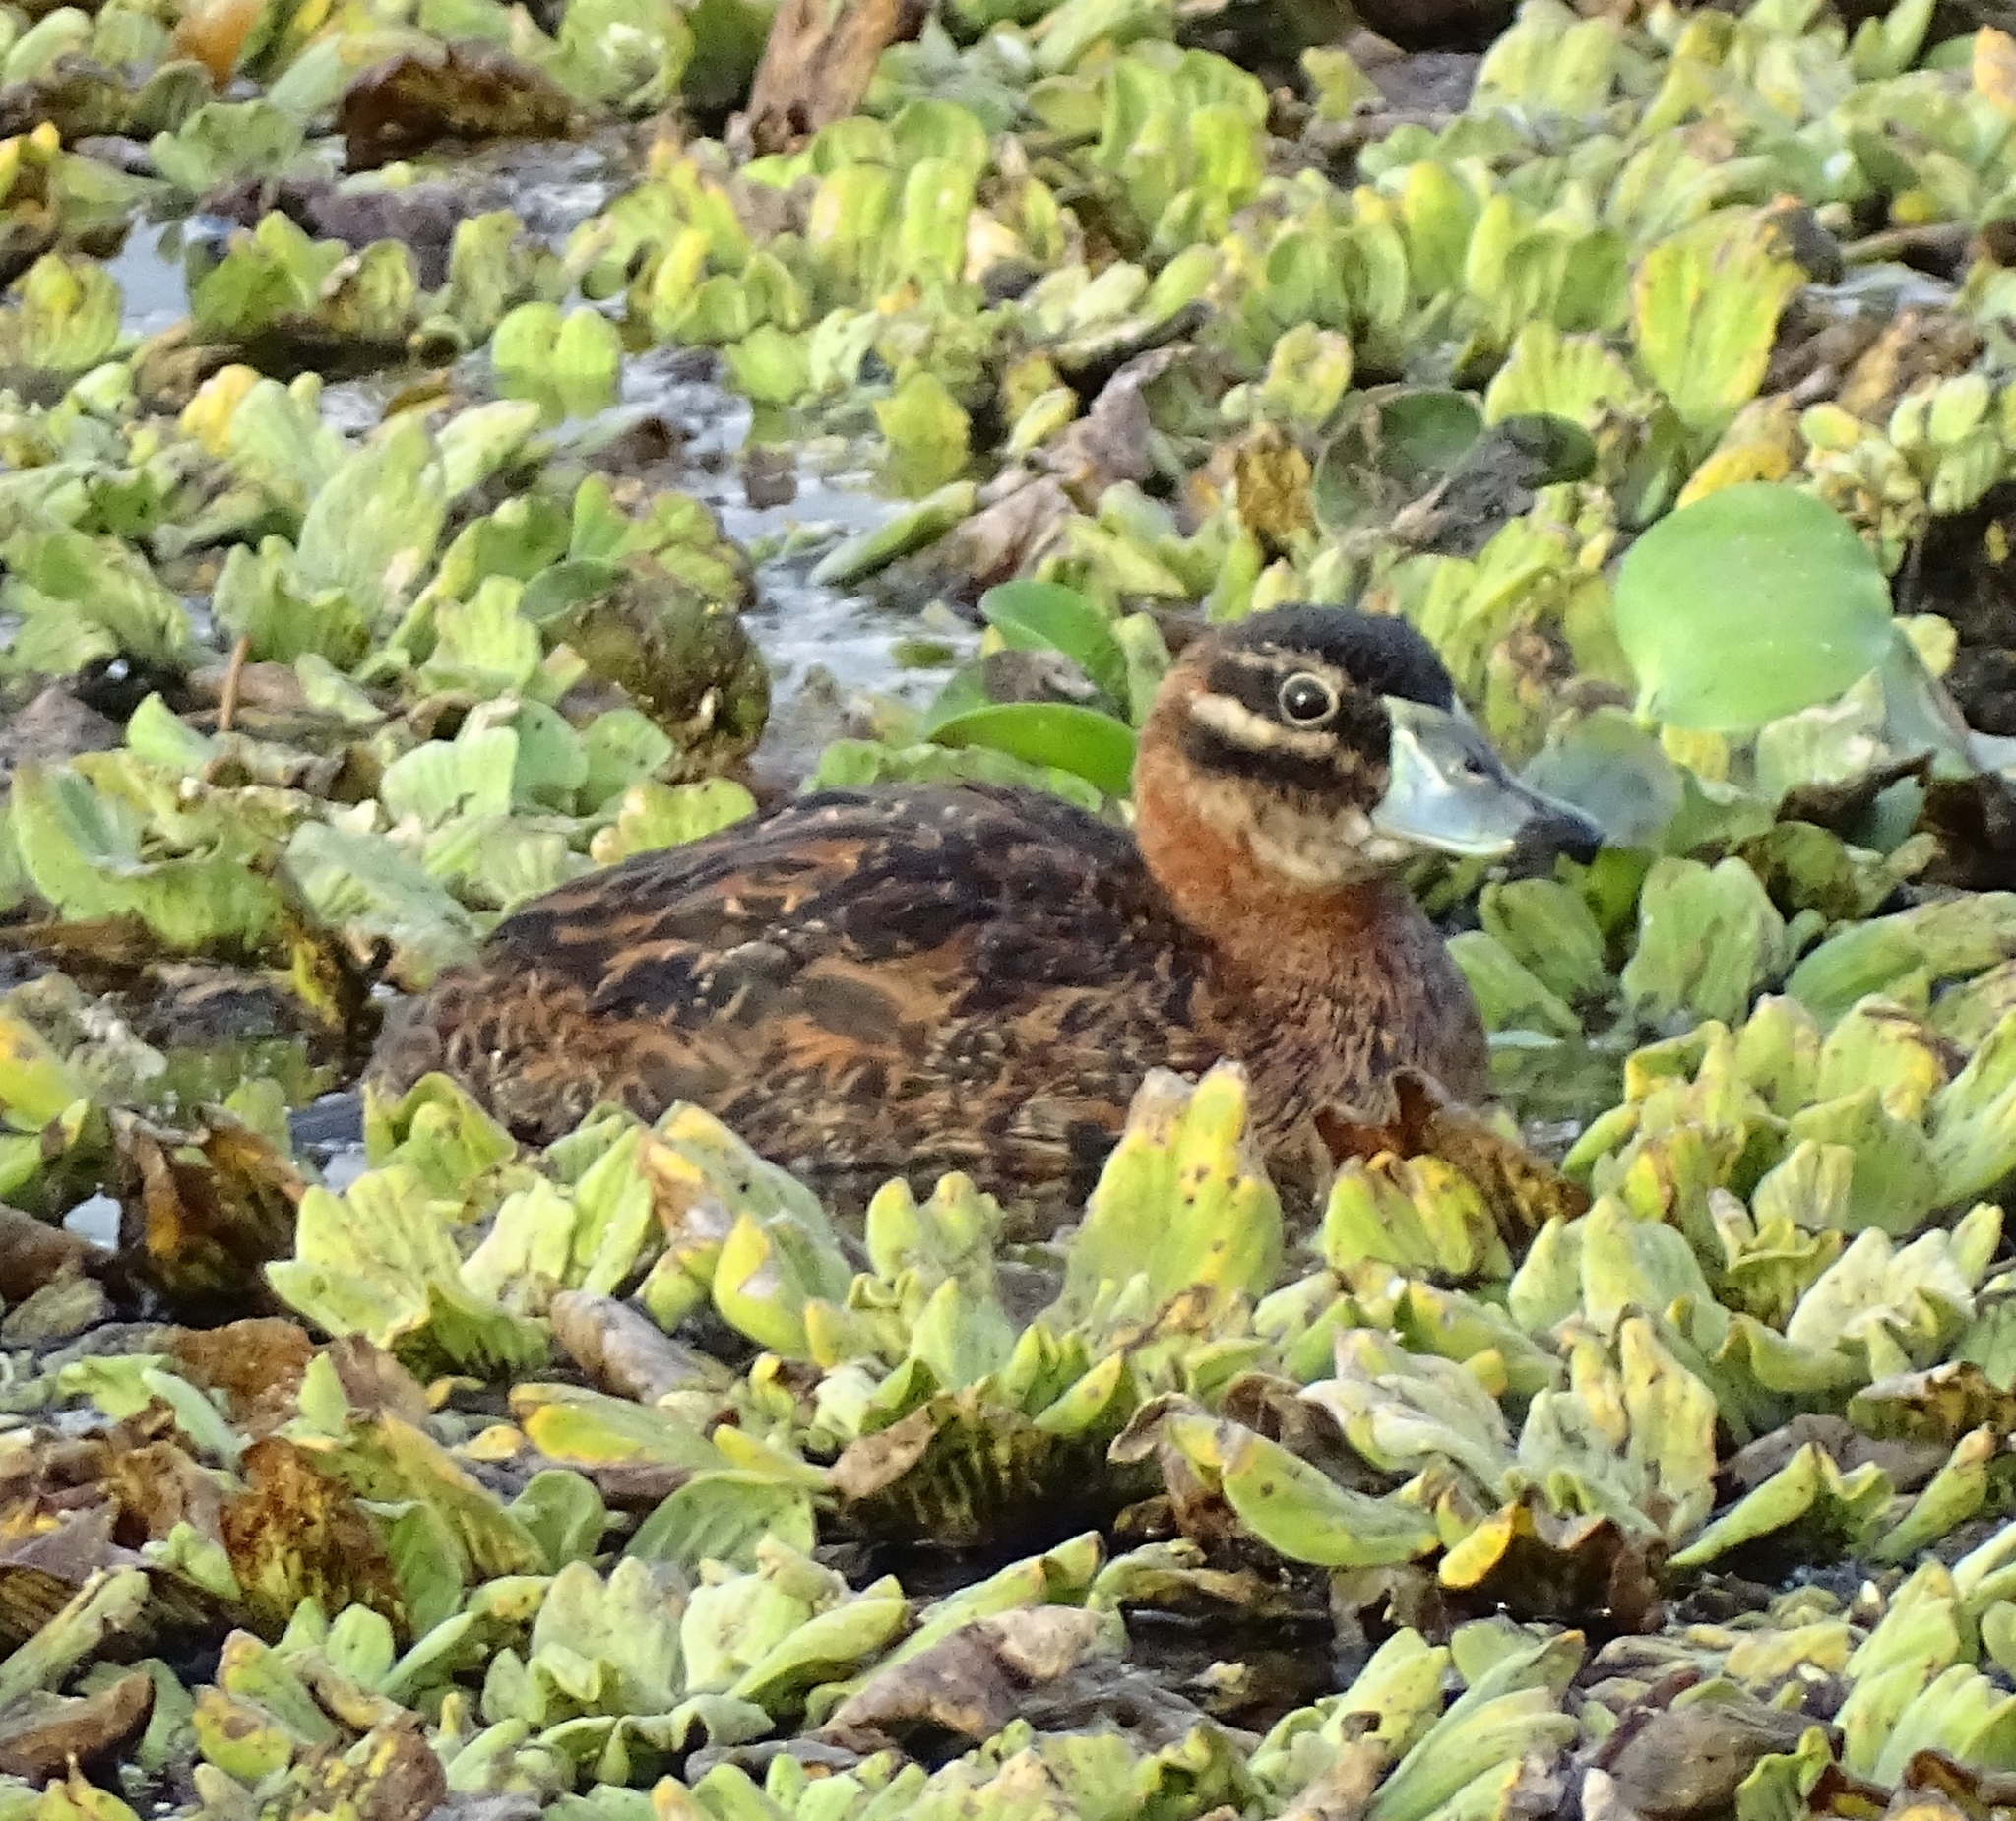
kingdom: Animalia
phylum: Chordata
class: Aves
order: Anseriformes
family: Anatidae
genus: Nomonyx
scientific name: Nomonyx dominicus
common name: Masked duck
